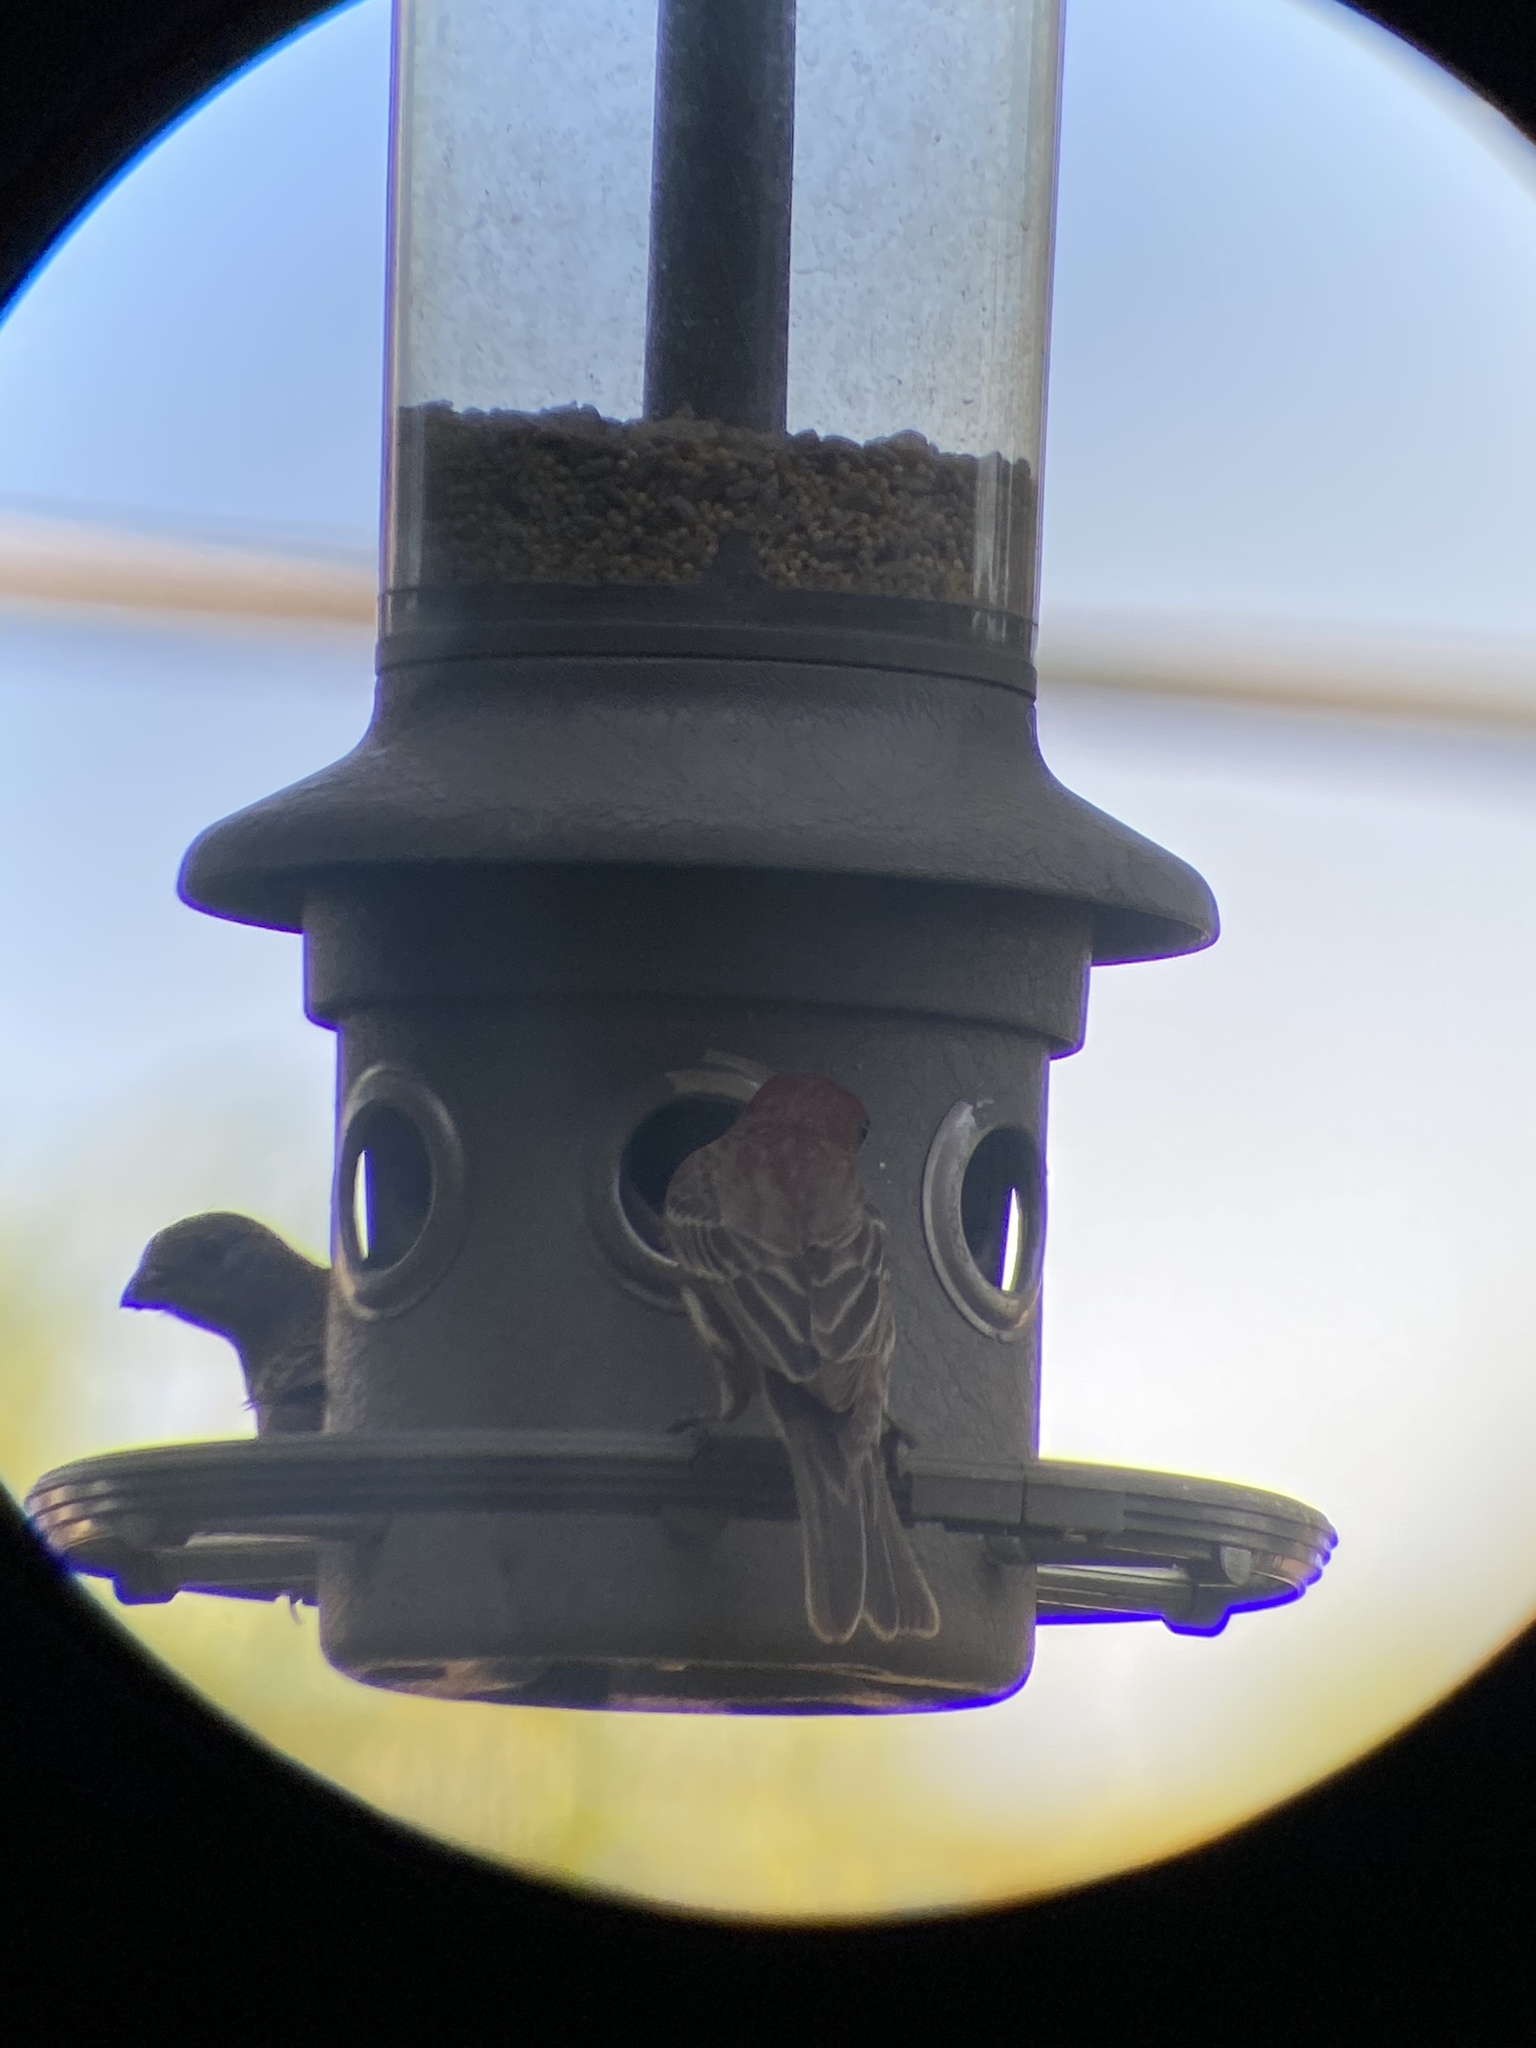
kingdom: Animalia
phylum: Chordata
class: Aves
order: Passeriformes
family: Fringillidae
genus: Haemorhous
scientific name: Haemorhous mexicanus
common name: House finch
